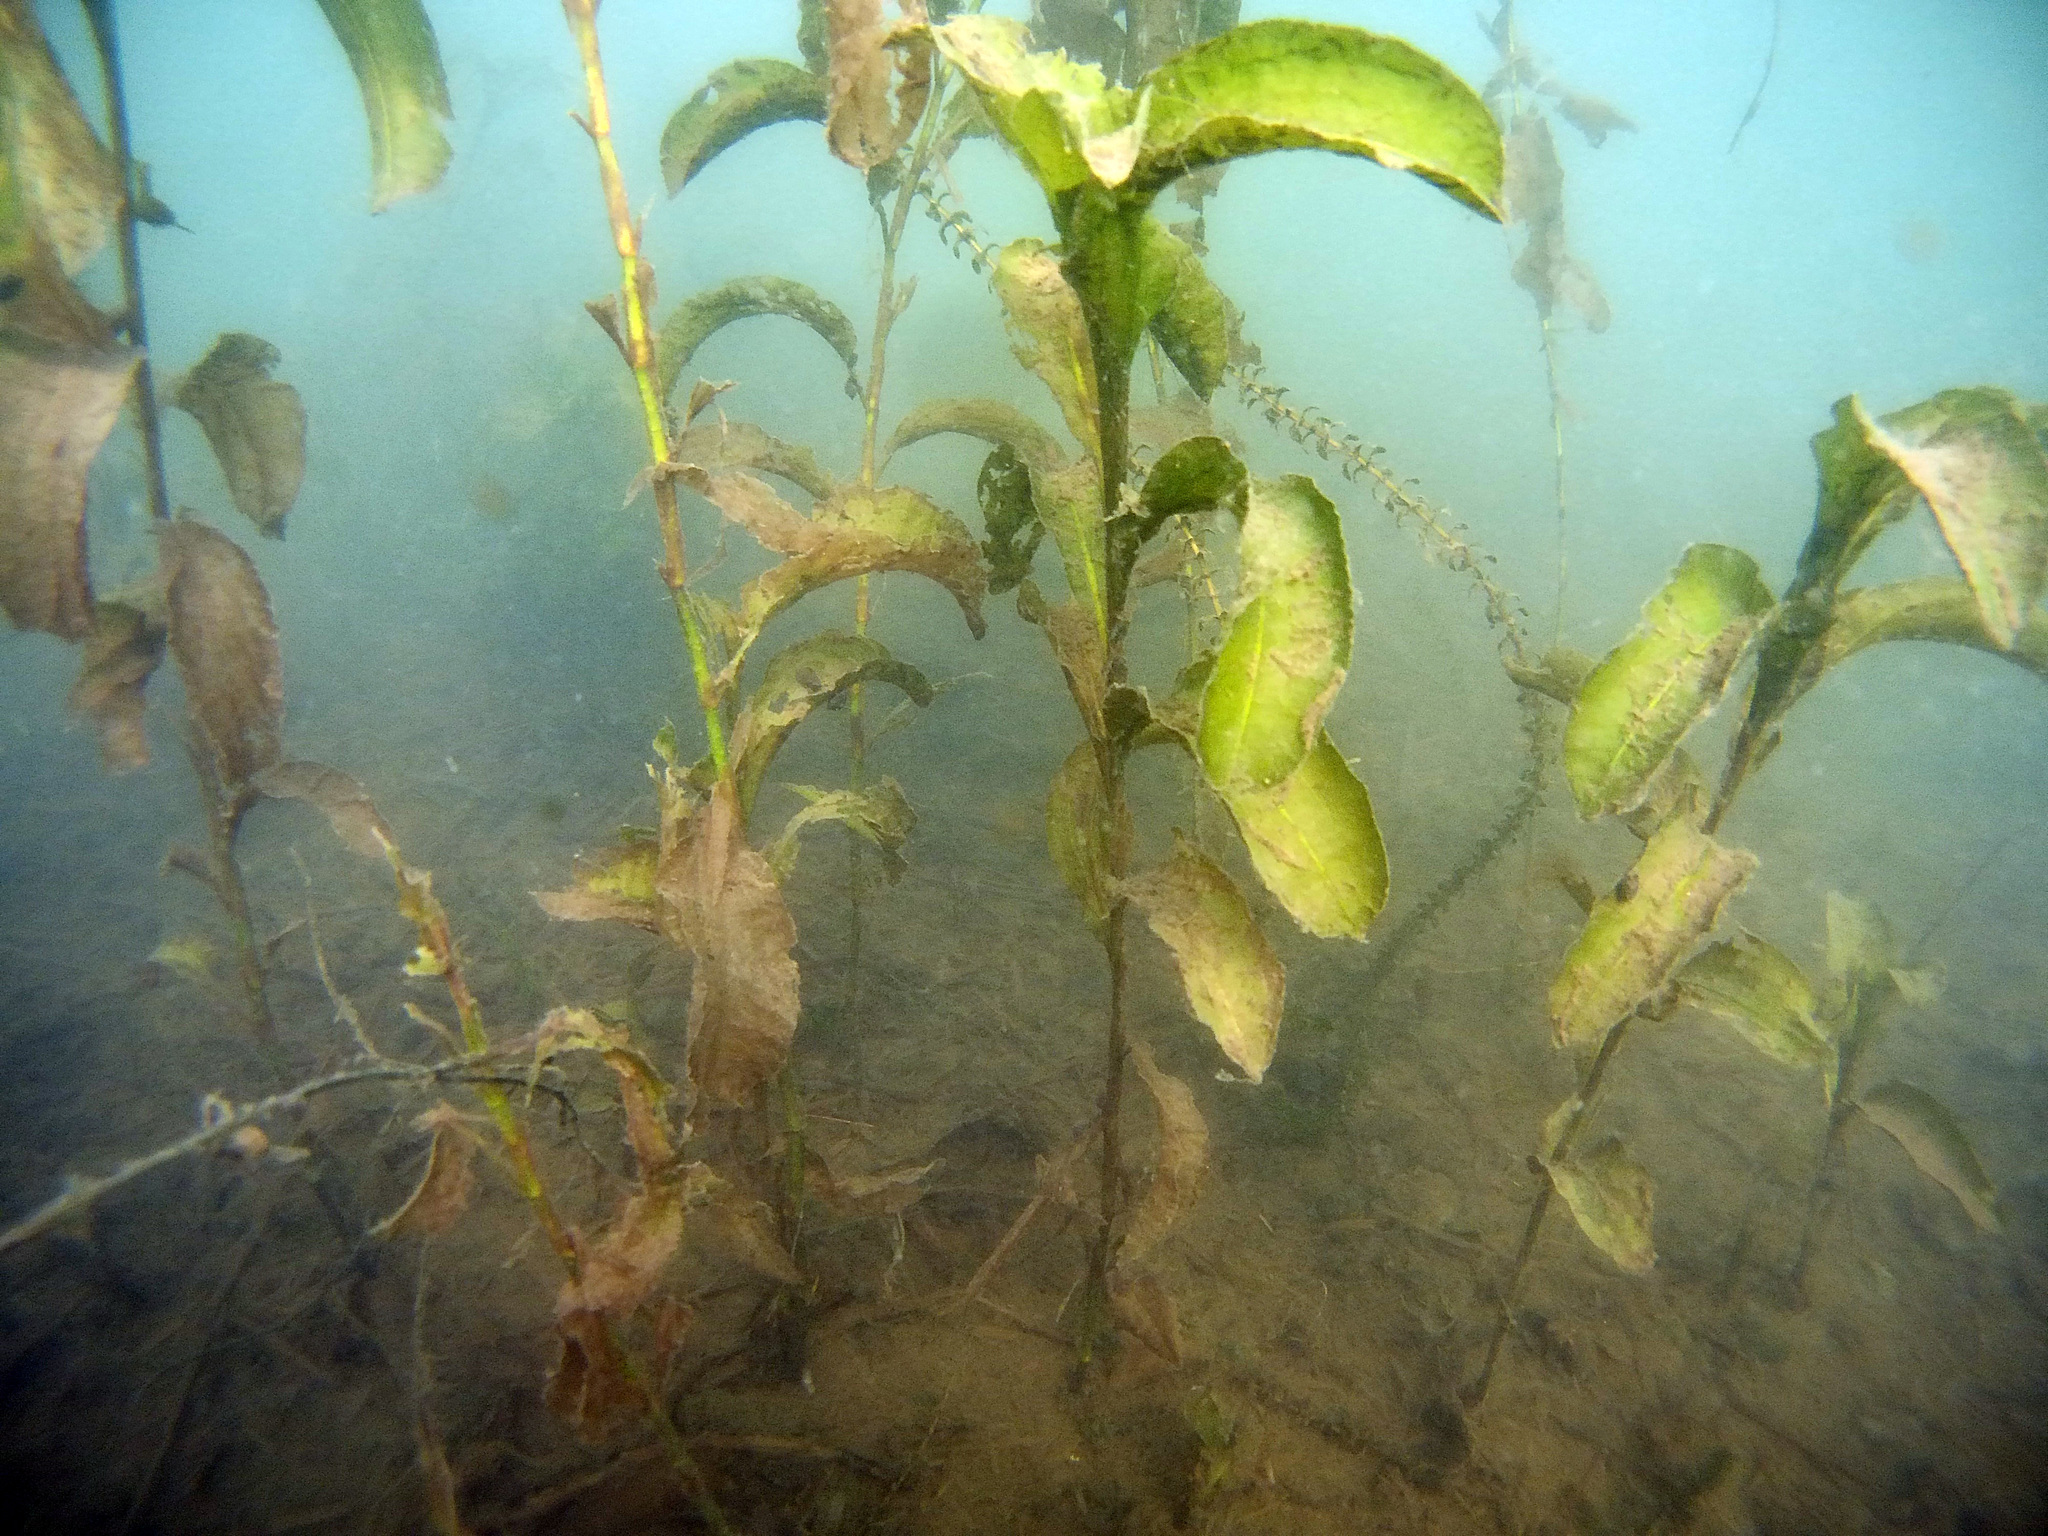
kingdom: Plantae
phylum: Tracheophyta
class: Liliopsida
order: Alismatales
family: Potamogetonaceae
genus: Potamogeton
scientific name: Potamogeton amplifolius
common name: Broad-leaved pondweed
